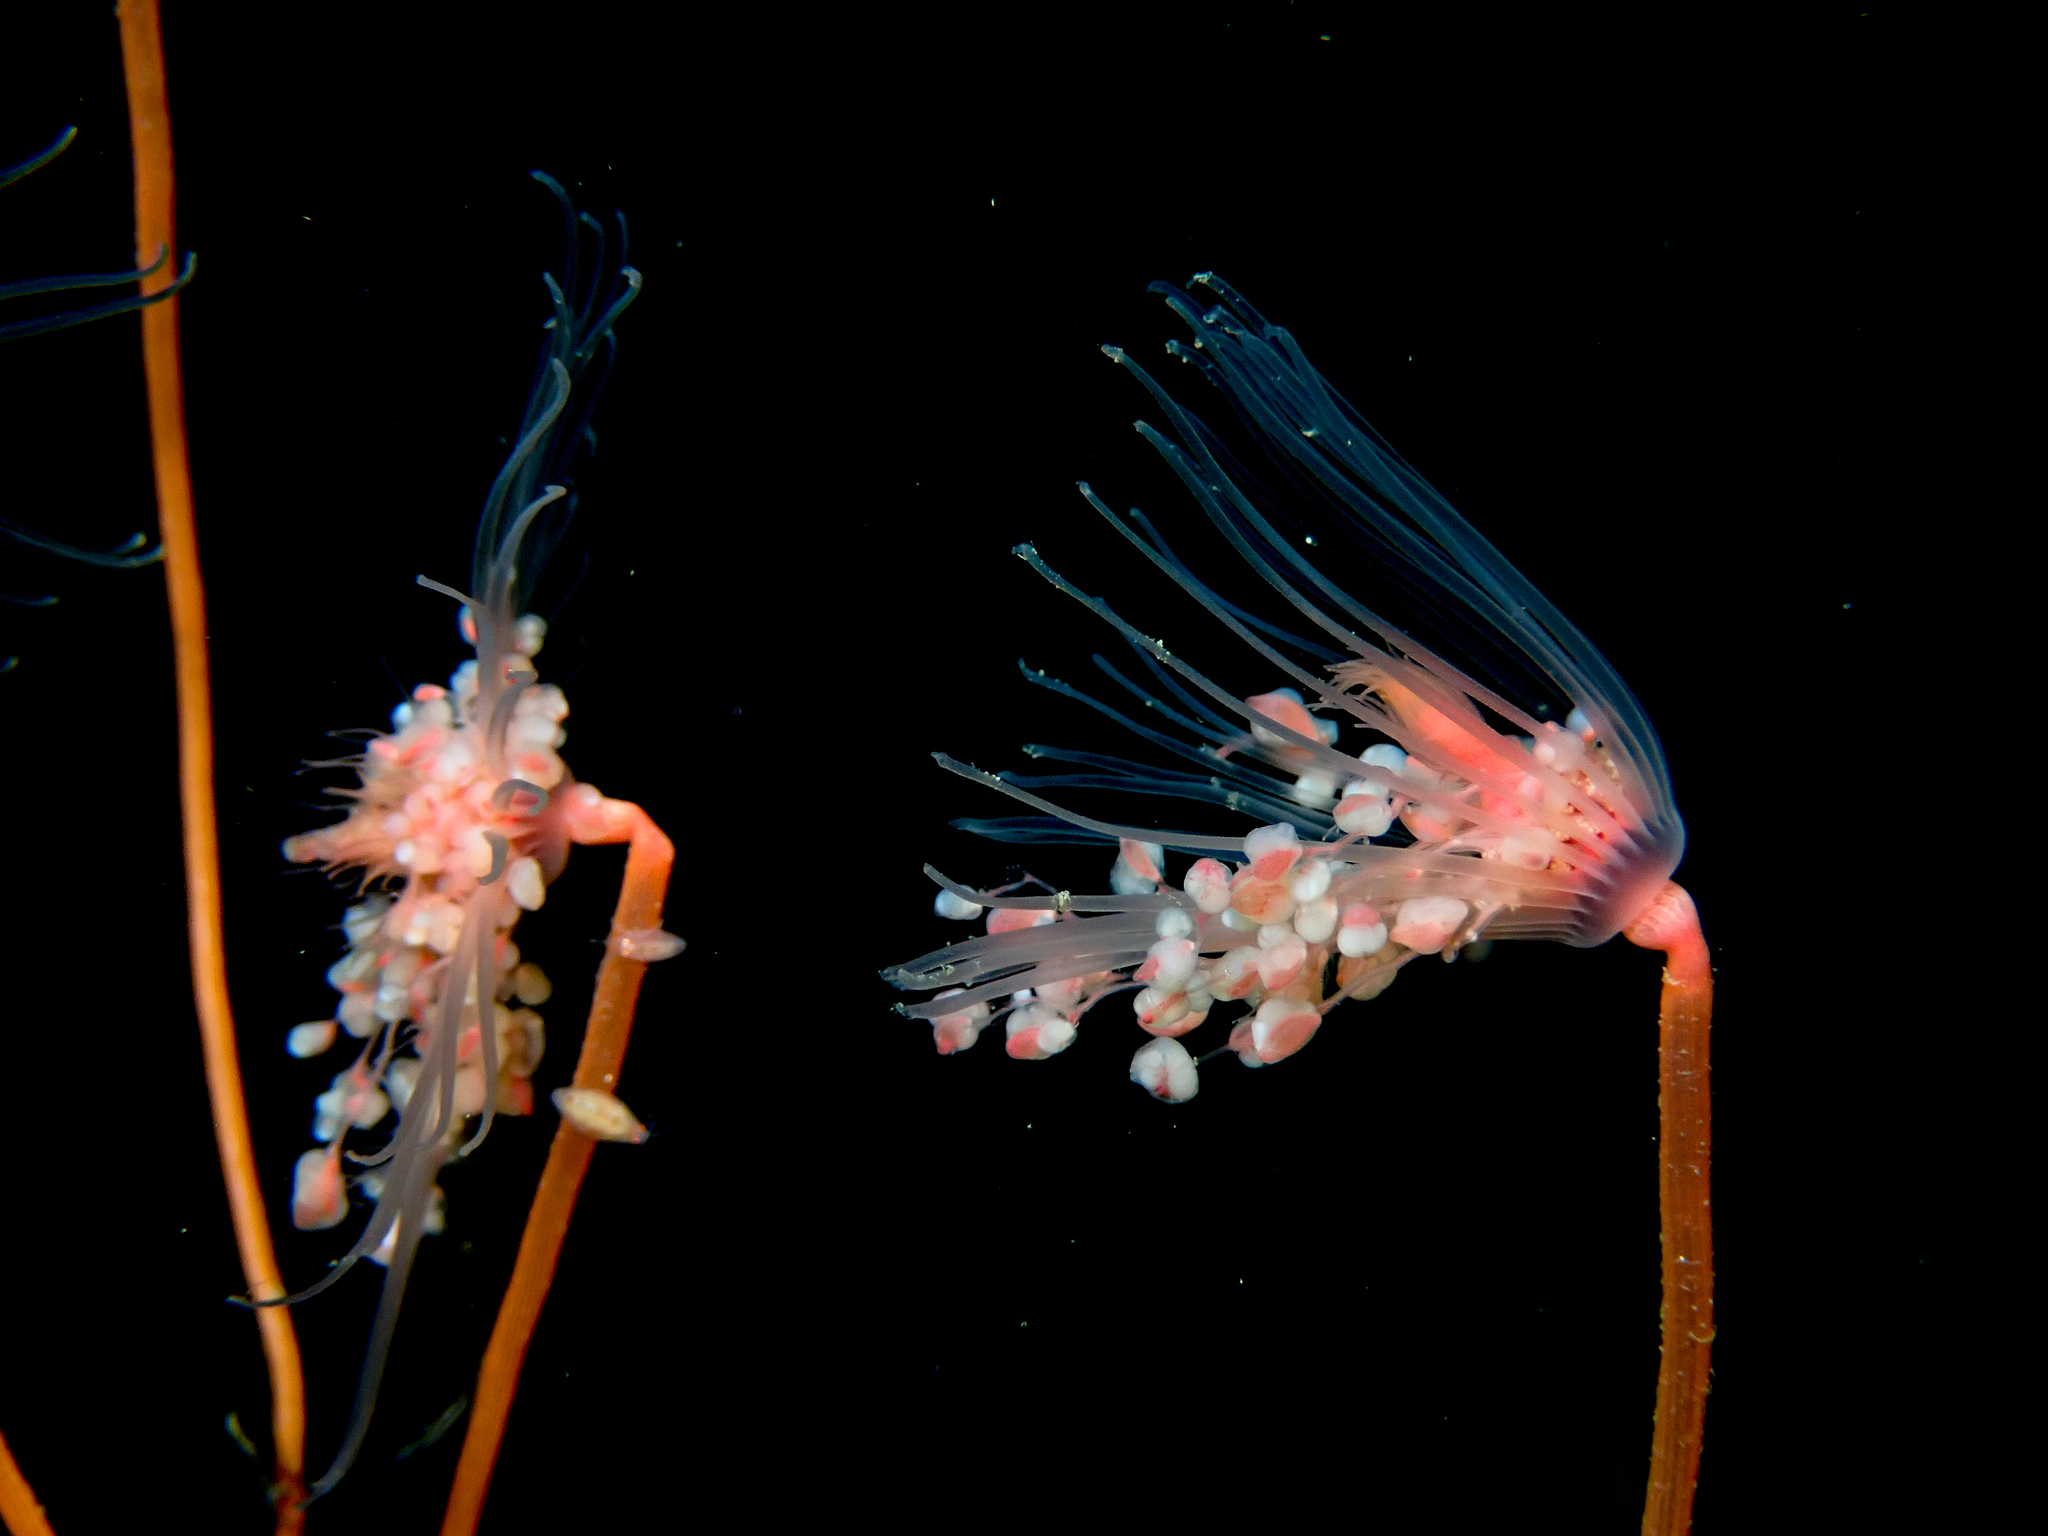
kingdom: Animalia
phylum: Cnidaria
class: Hydrozoa
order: Anthoathecata
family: Tubulariidae
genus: Tubularia
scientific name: Tubularia indivisa
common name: Oaten pipes hydroid
